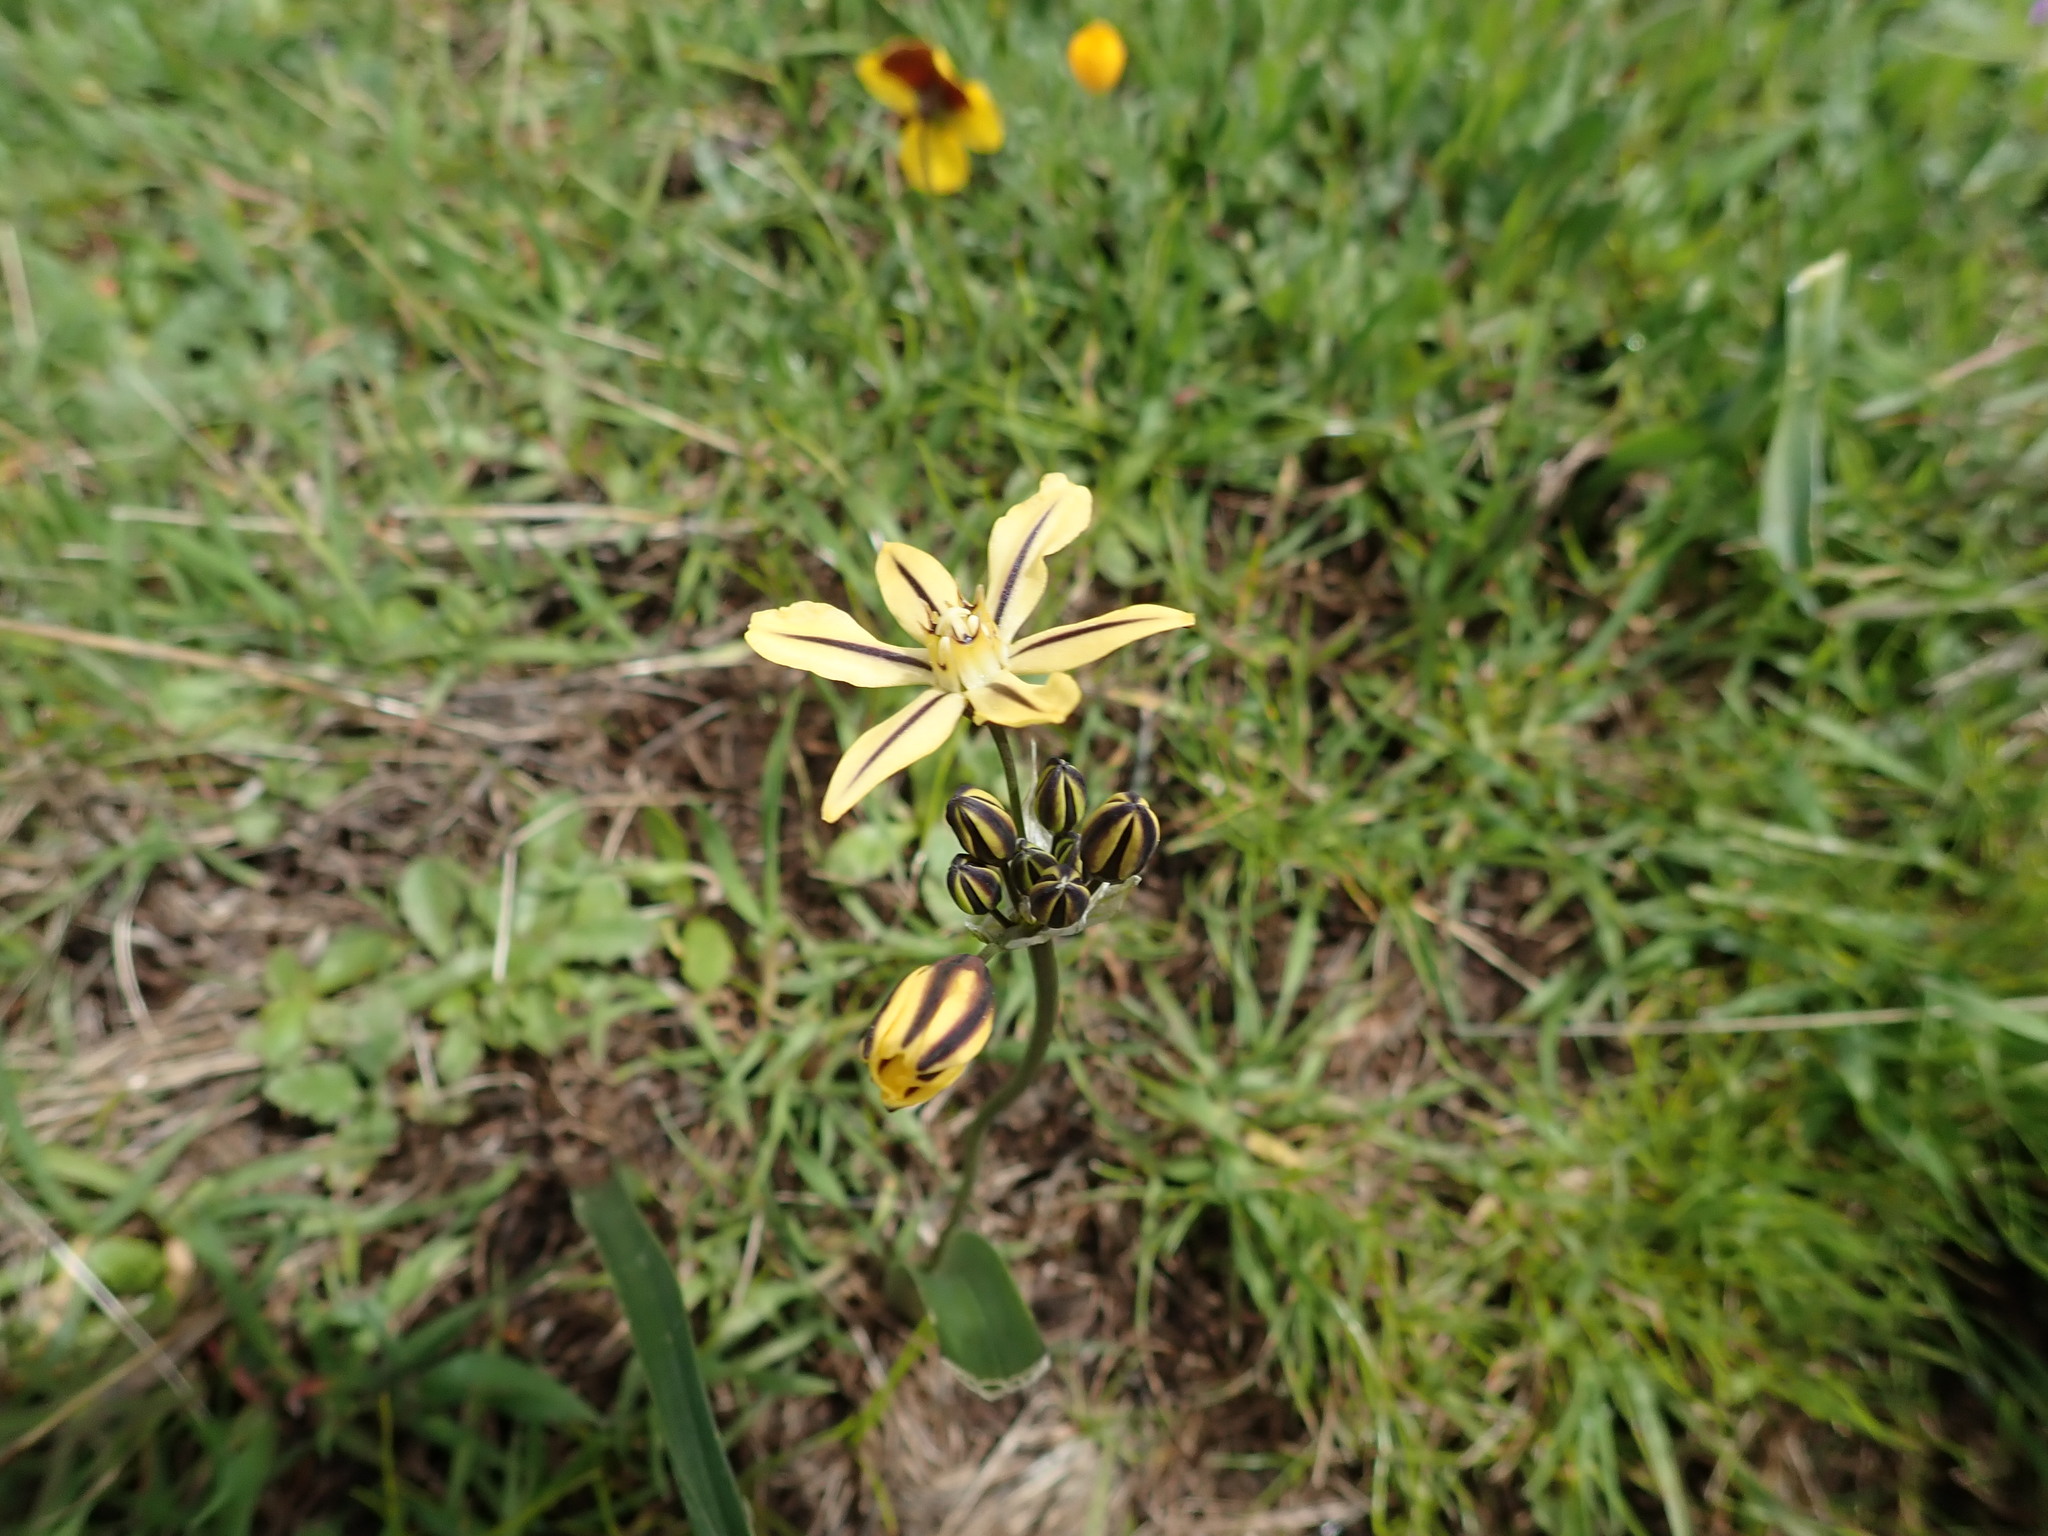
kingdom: Plantae
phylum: Tracheophyta
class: Liliopsida
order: Asparagales
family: Asparagaceae
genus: Triteleia
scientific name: Triteleia ixioides
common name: Yellow-brodiaea
